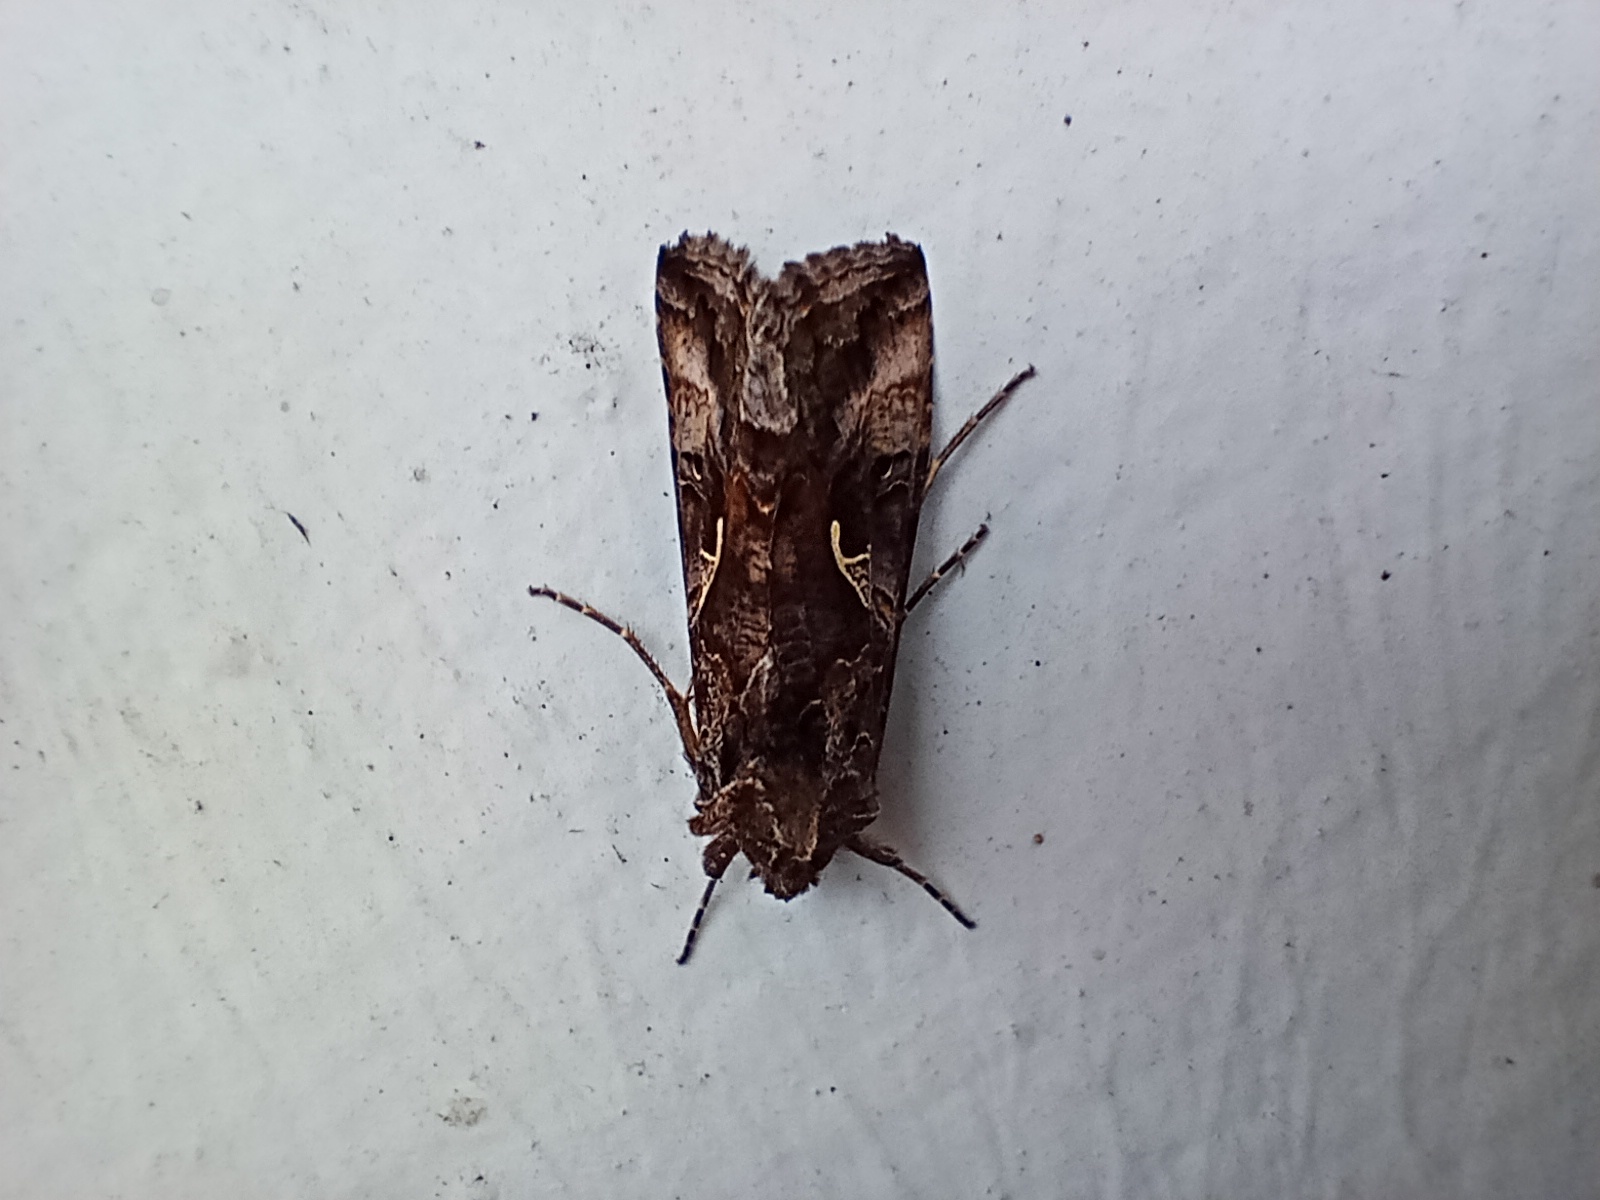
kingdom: Animalia
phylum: Arthropoda
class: Insecta
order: Lepidoptera
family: Noctuidae
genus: Autographa
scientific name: Autographa gamma
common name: Silver y
